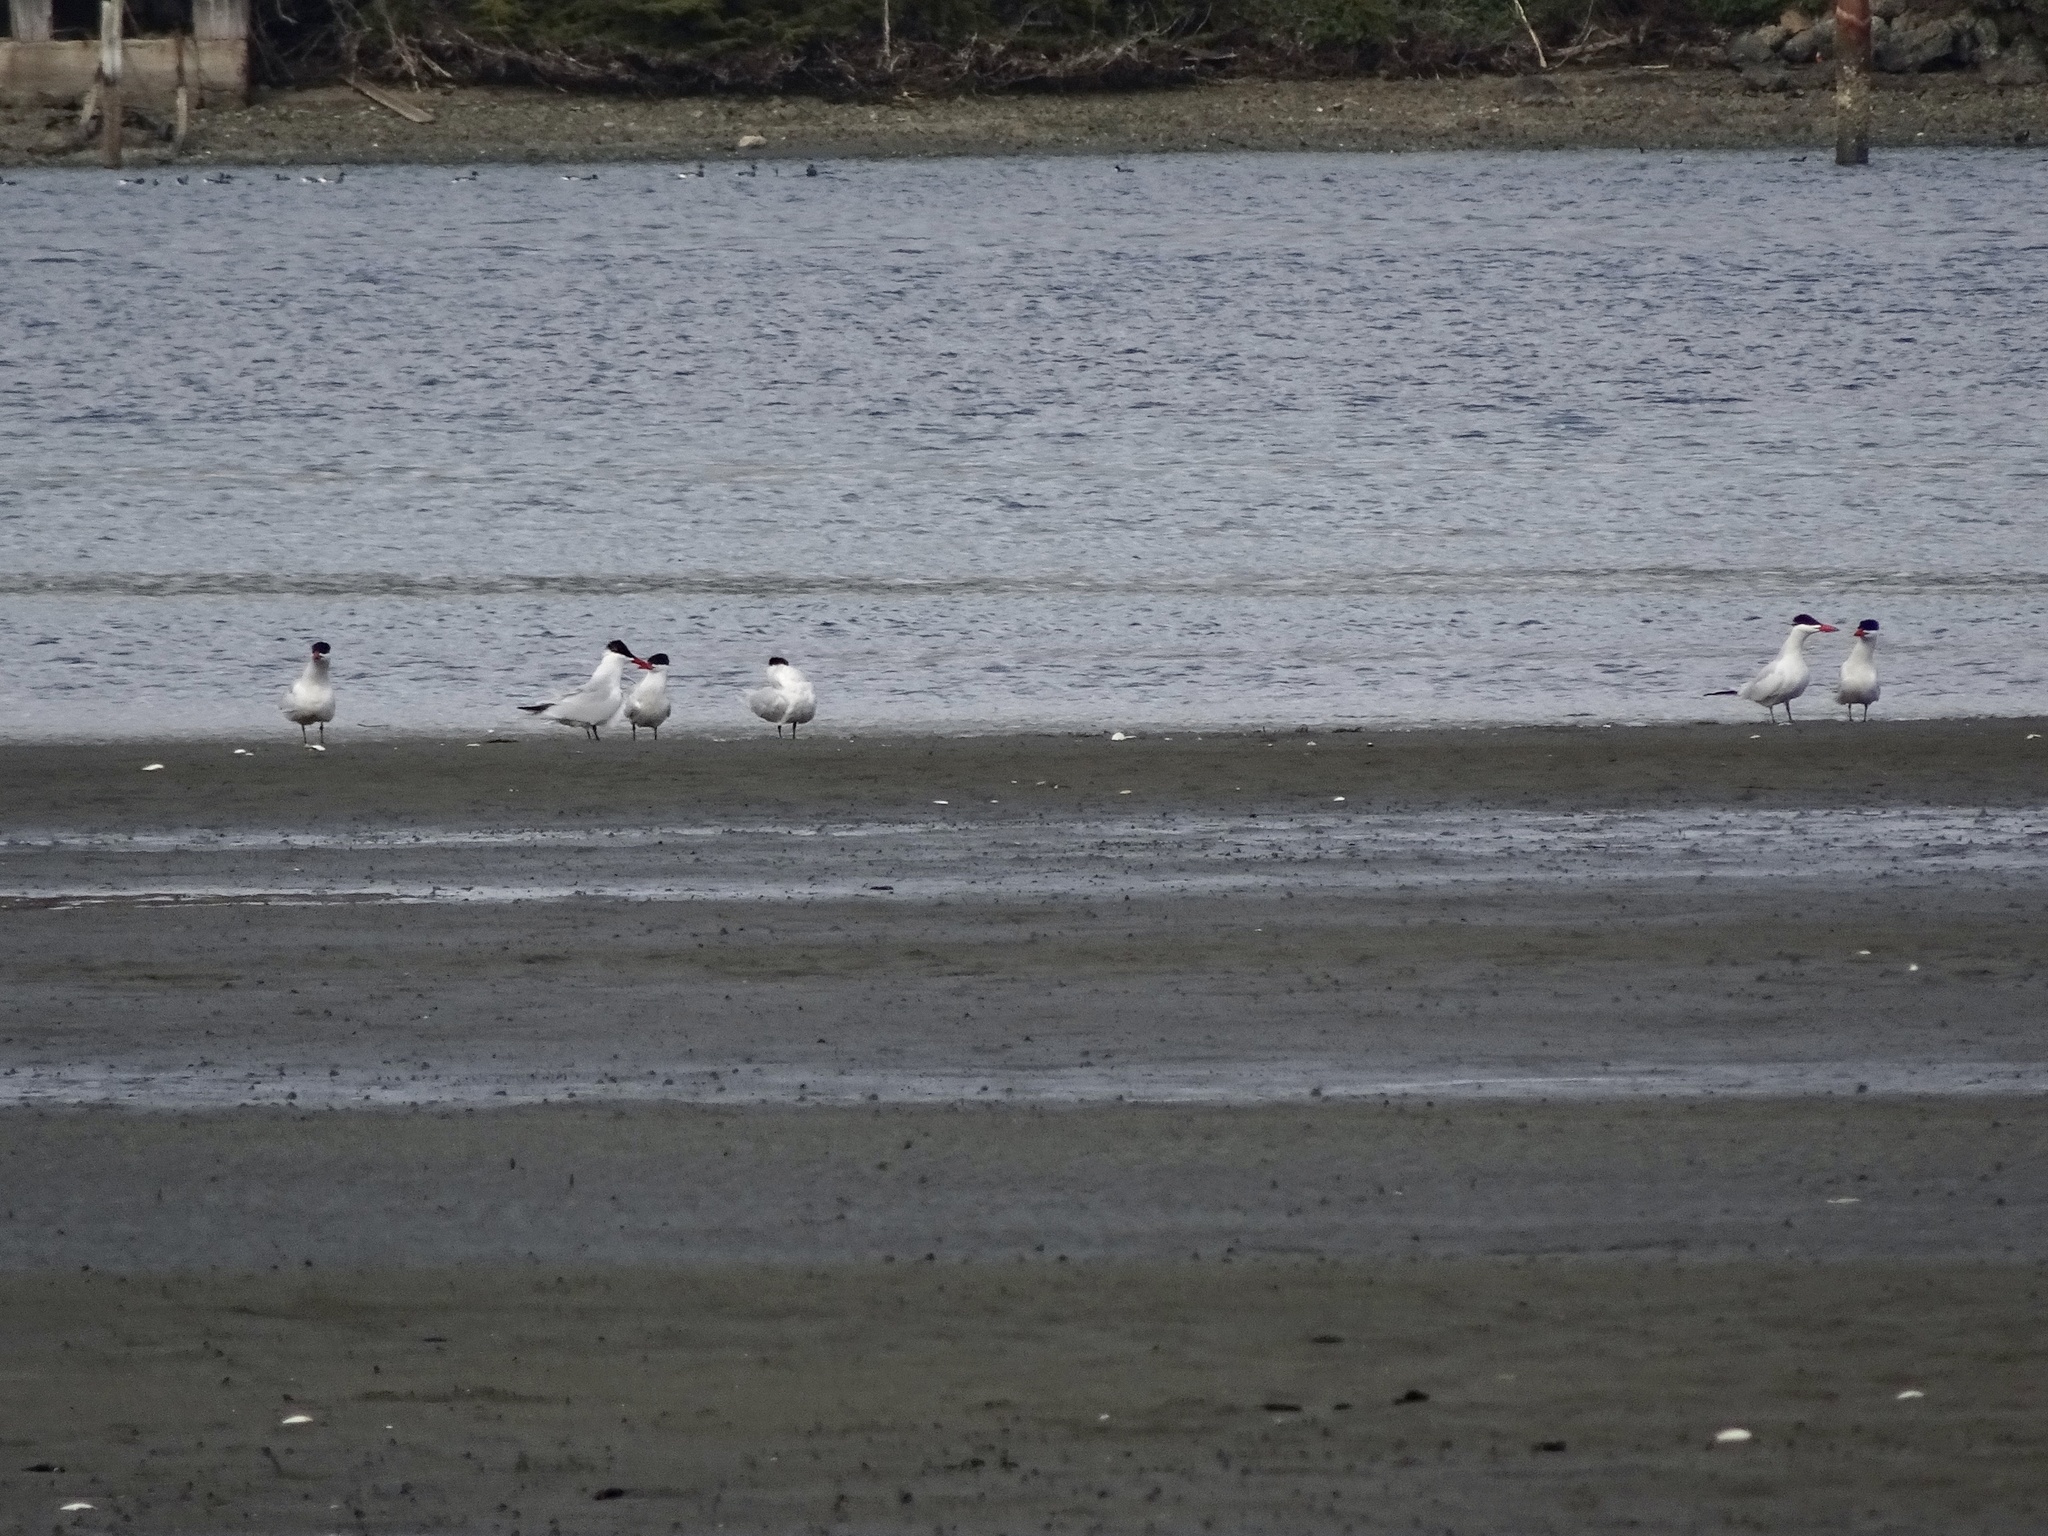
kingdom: Animalia
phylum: Chordata
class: Aves
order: Charadriiformes
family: Laridae
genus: Hydroprogne
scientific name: Hydroprogne caspia
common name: Caspian tern
